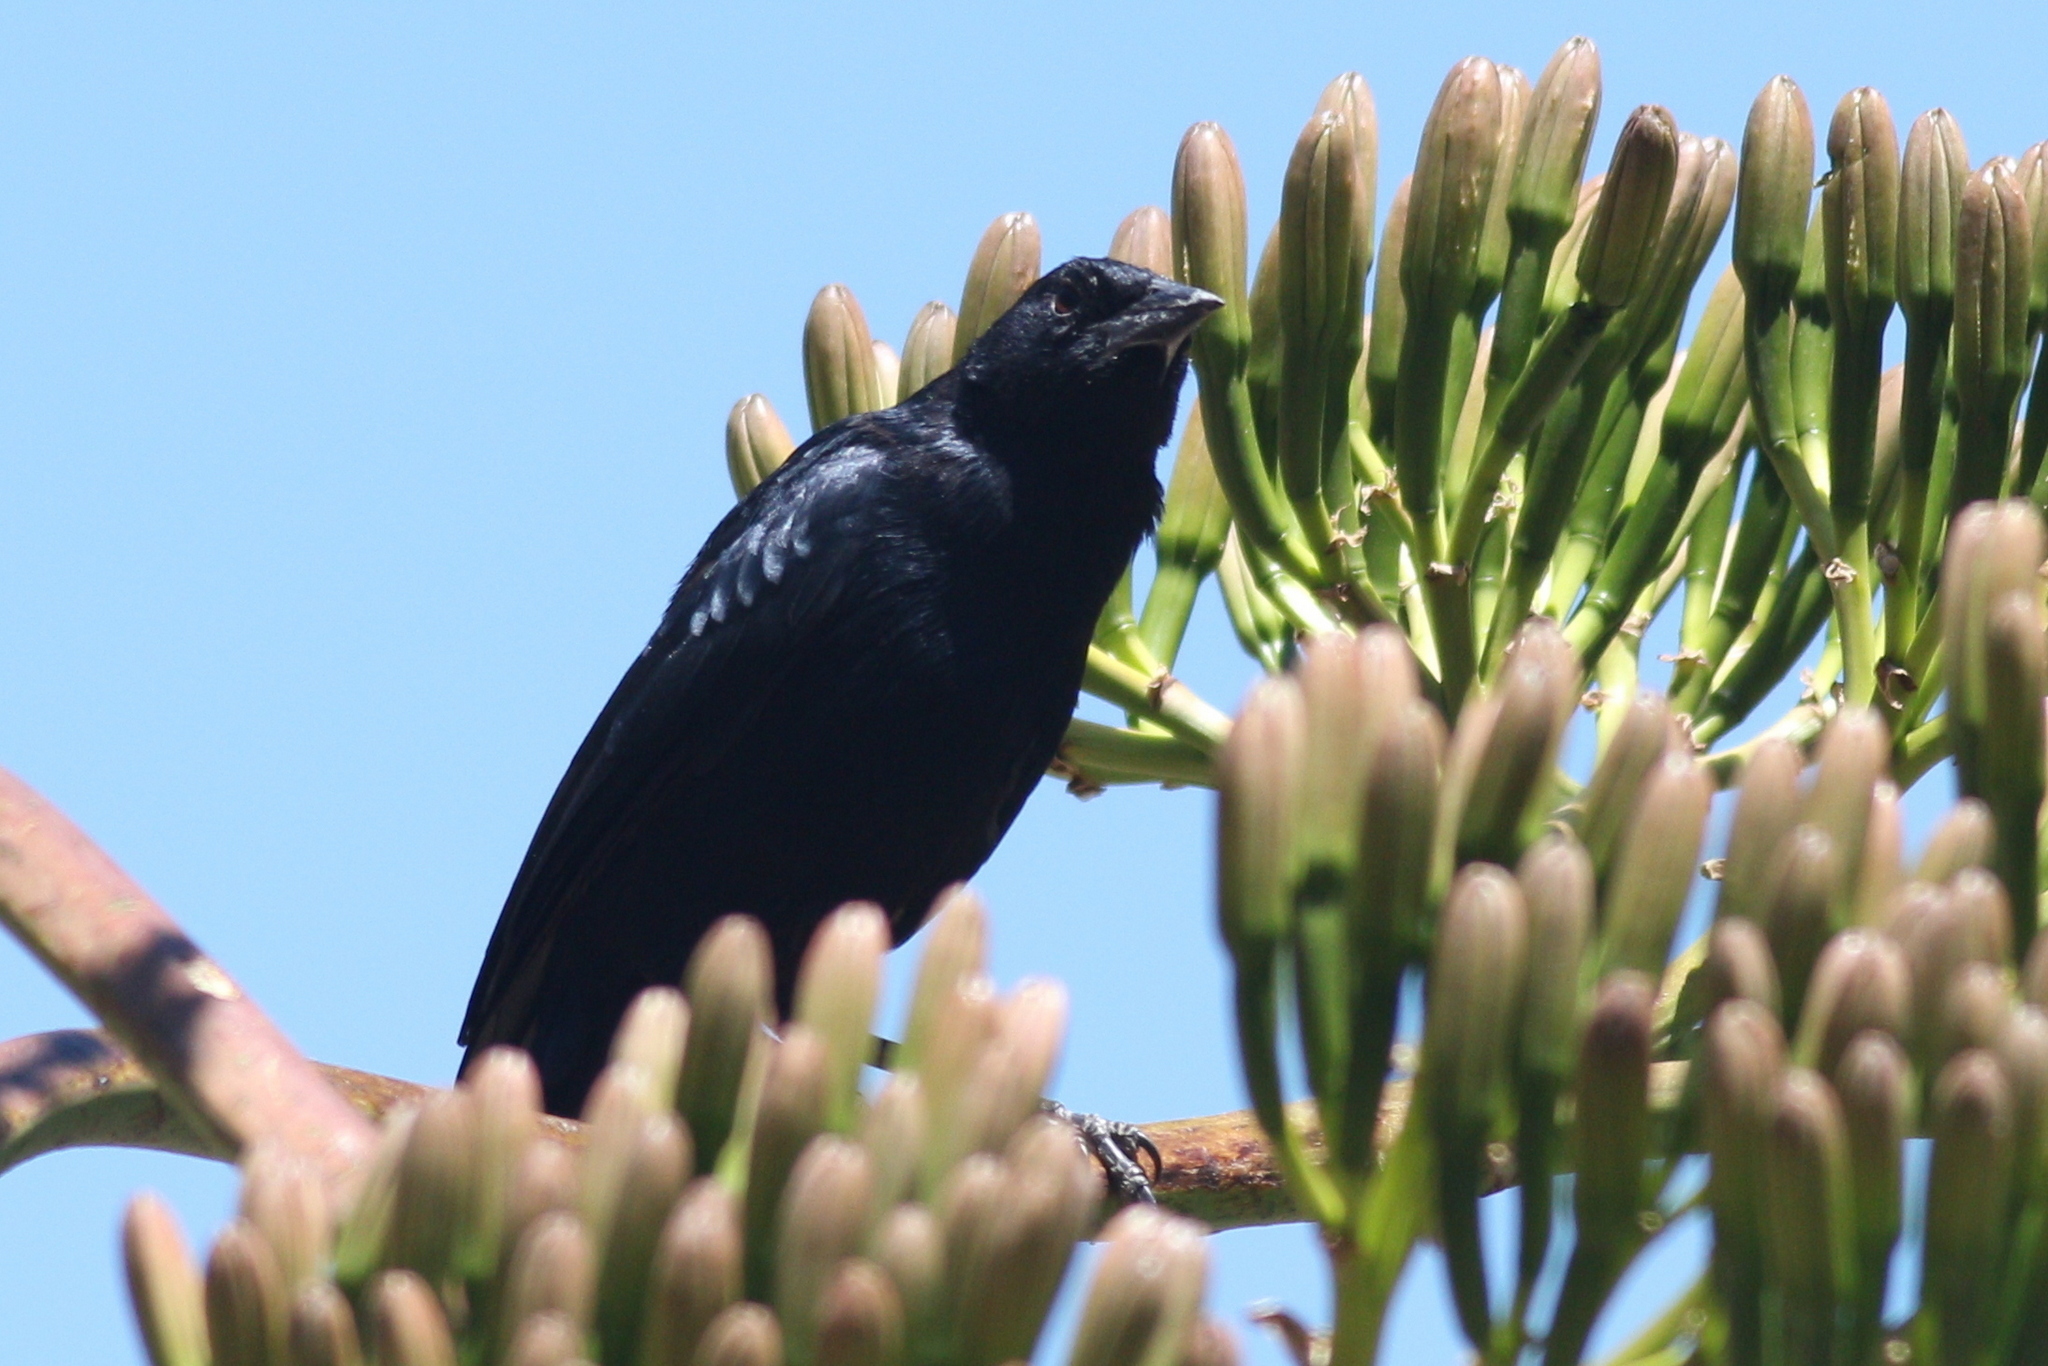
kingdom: Animalia
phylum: Chordata
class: Aves
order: Passeriformes
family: Icteridae
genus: Dives
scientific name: Dives warczewiczi
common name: Scrub blackbird
